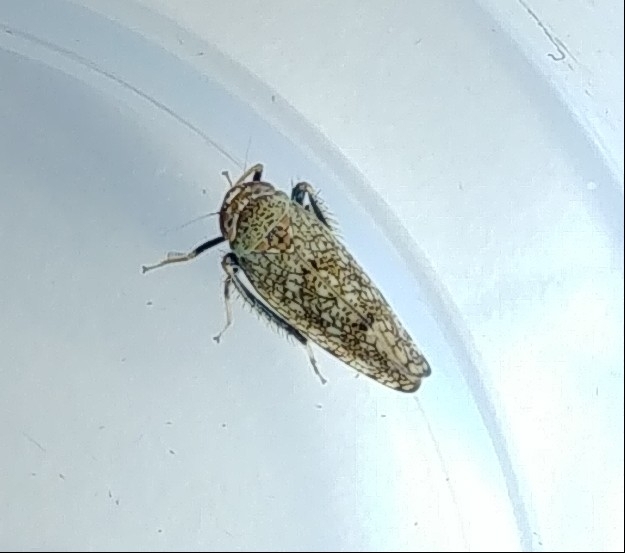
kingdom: Animalia
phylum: Arthropoda
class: Insecta
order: Hemiptera
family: Cicadellidae
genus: Orientus
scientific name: Orientus ishidae
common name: Japanese leafhopper
